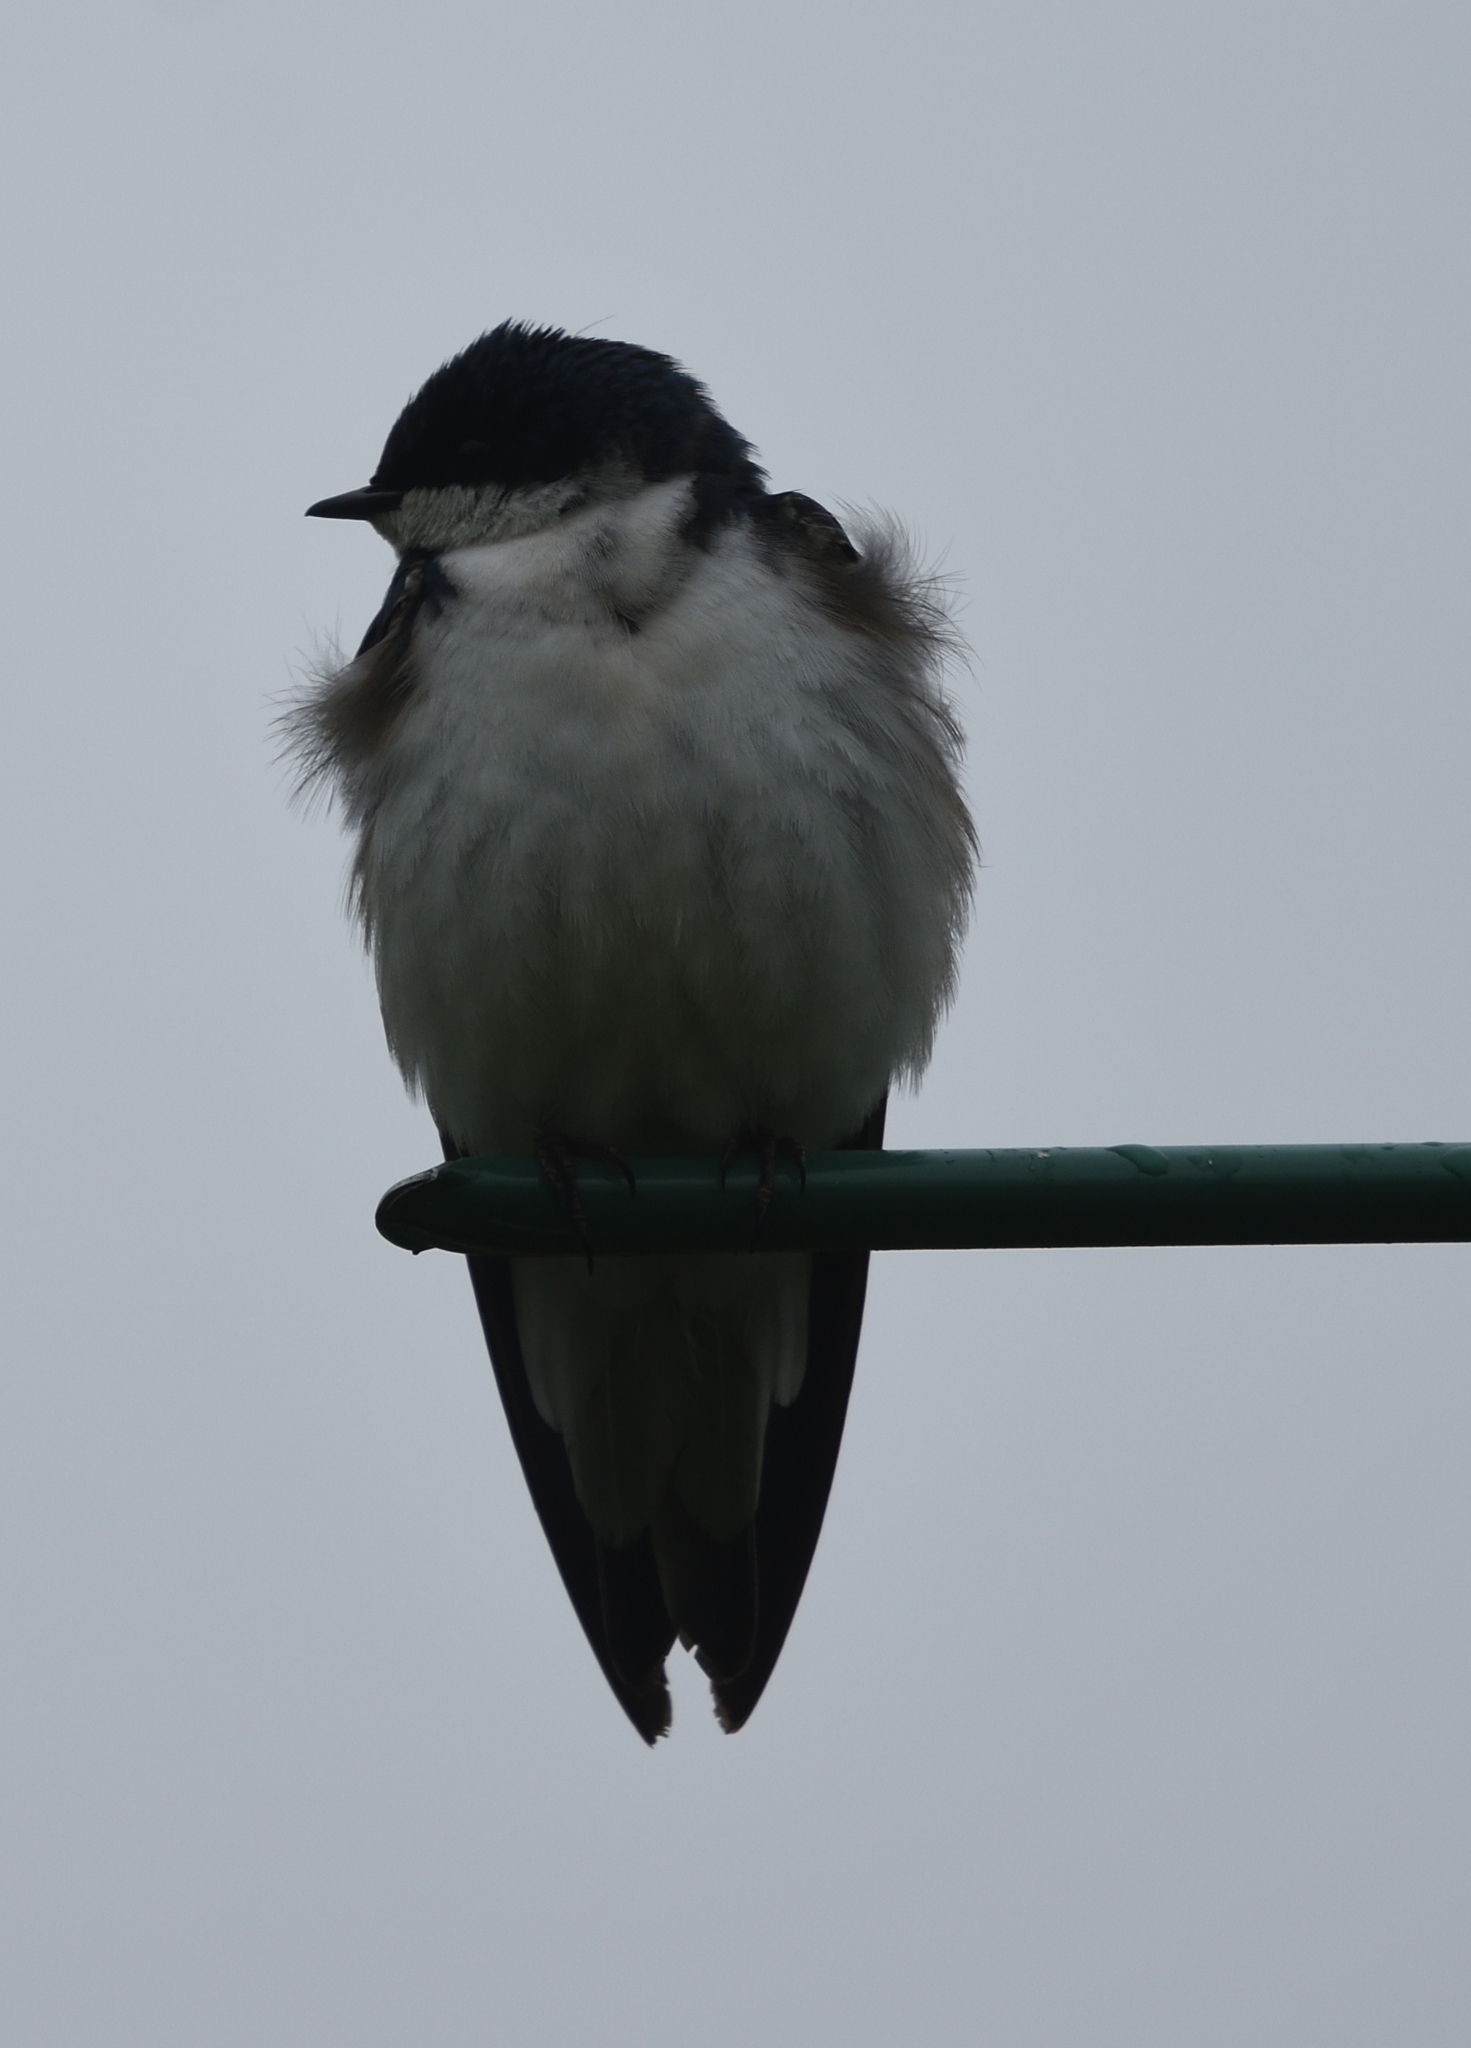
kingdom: Animalia
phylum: Chordata
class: Aves
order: Passeriformes
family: Hirundinidae
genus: Tachycineta
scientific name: Tachycineta bicolor
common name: Tree swallow
